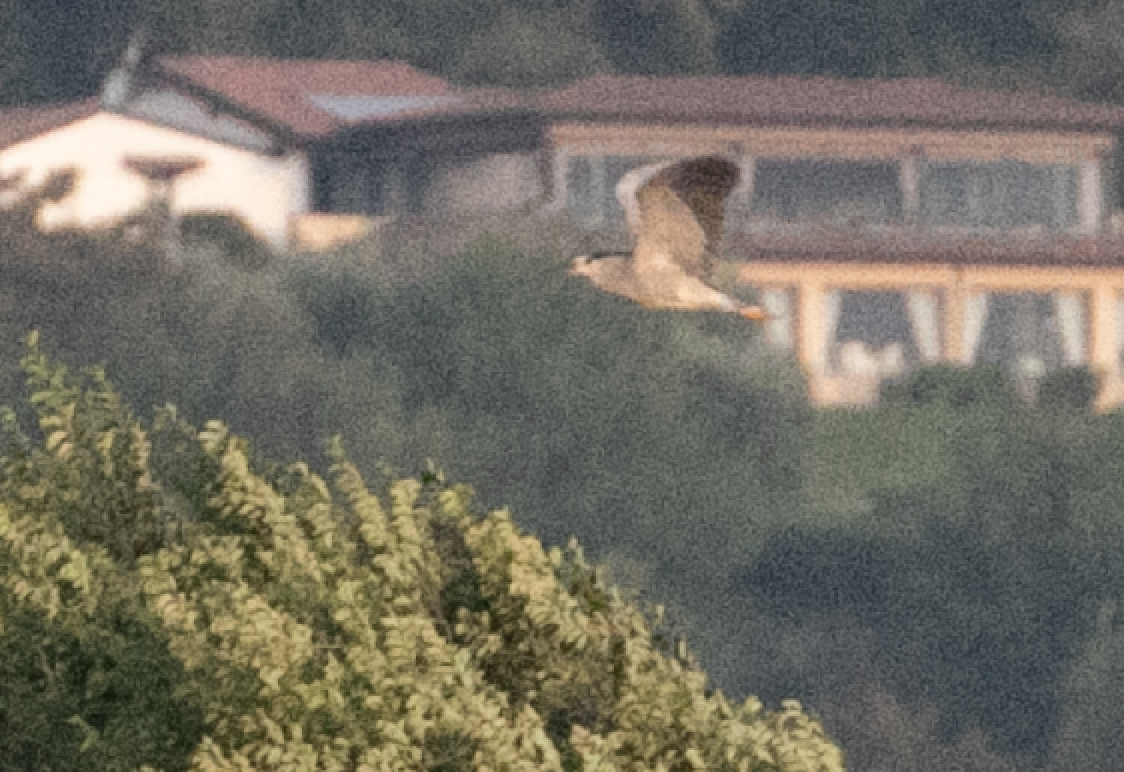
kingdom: Animalia
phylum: Chordata
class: Aves
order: Pelecaniformes
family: Ardeidae
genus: Nycticorax
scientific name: Nycticorax nycticorax
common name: Black-crowned night heron
